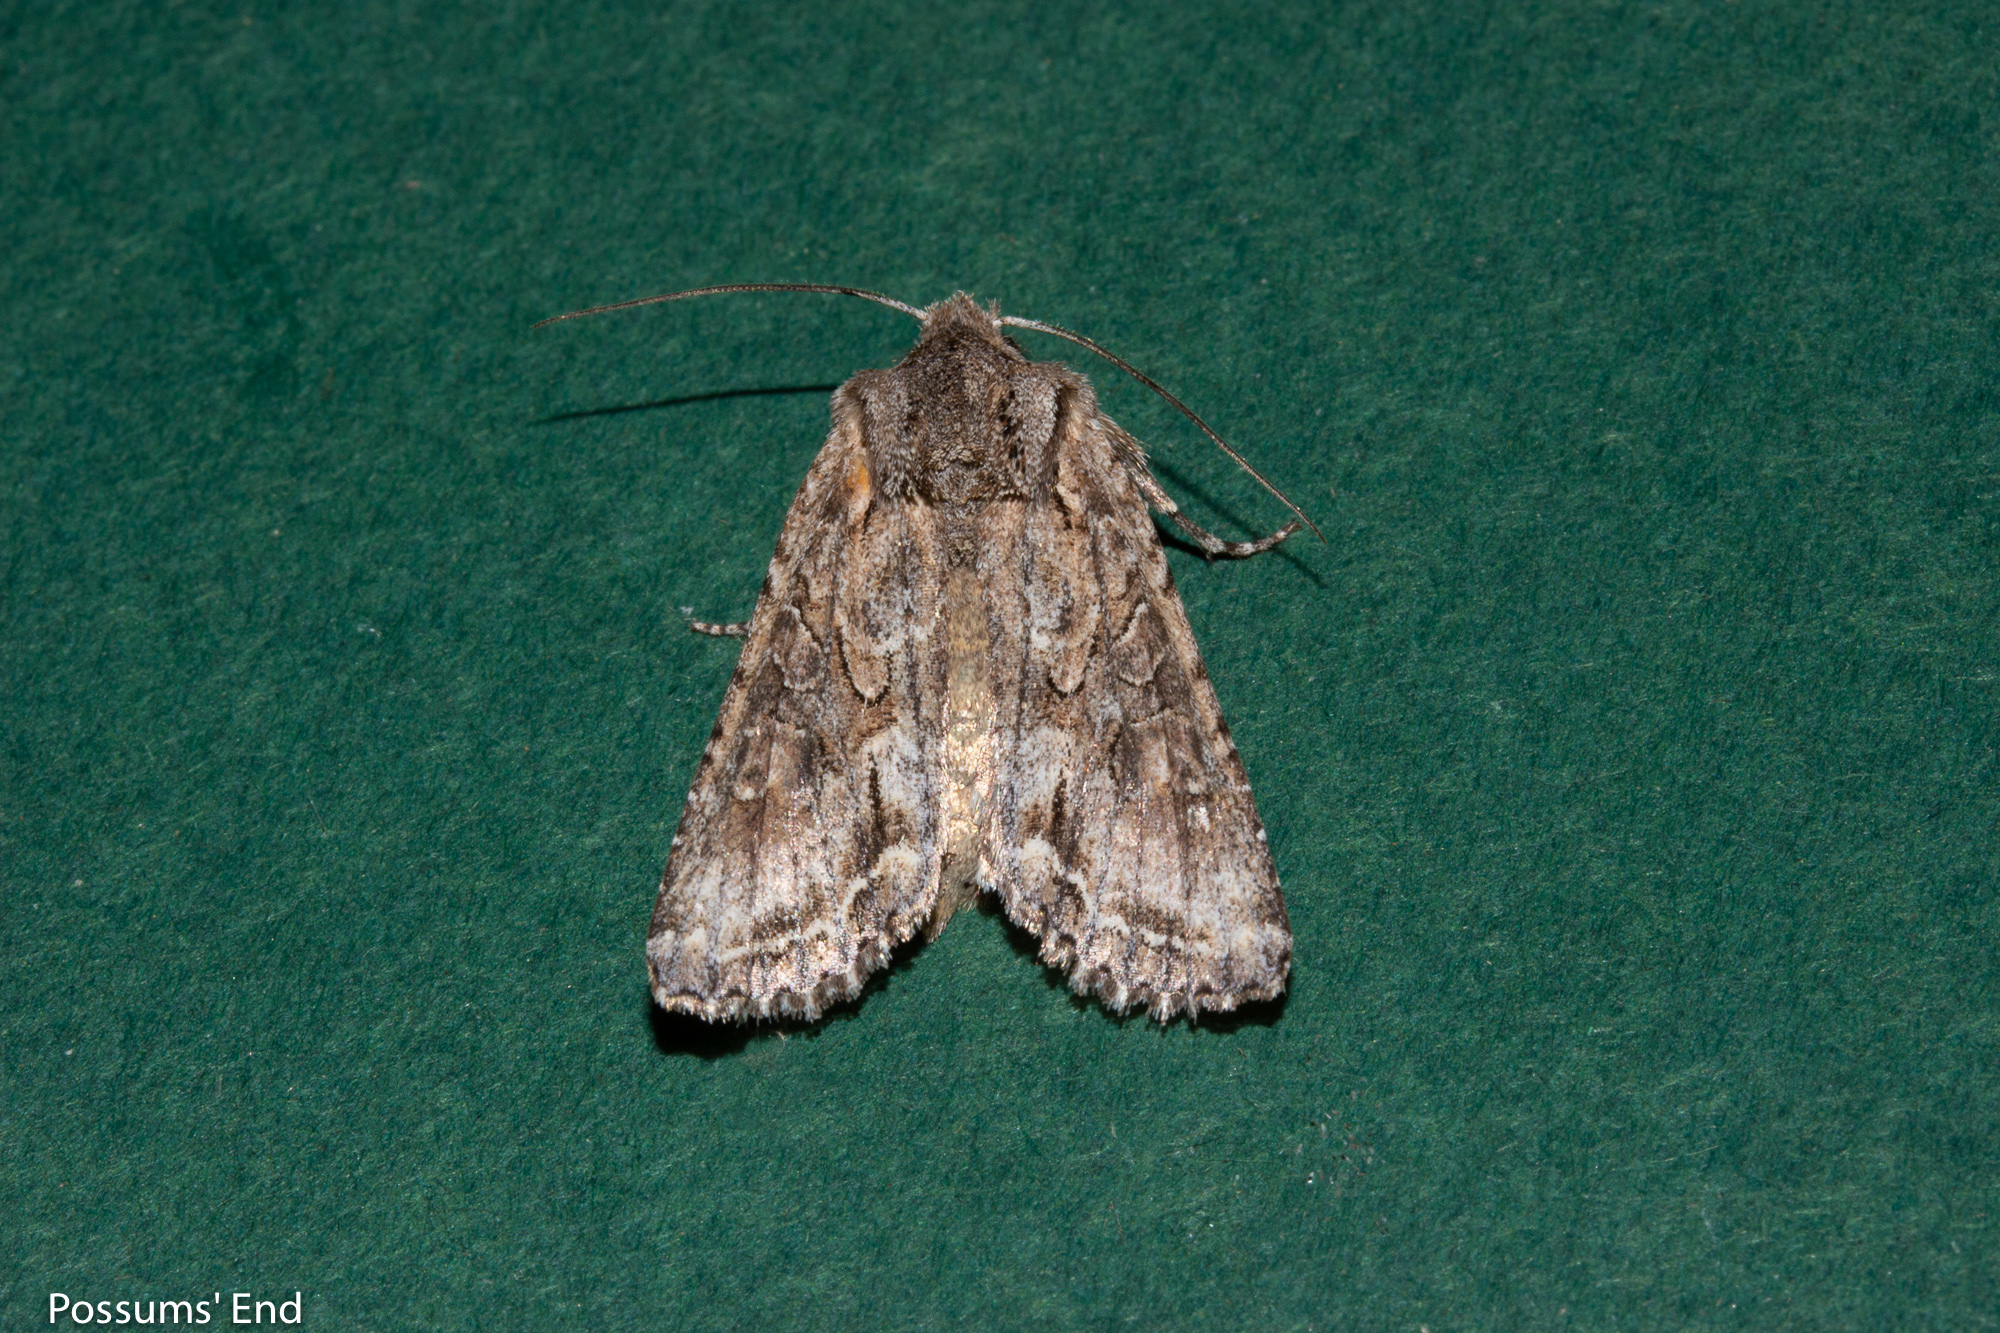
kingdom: Animalia
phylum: Arthropoda
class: Insecta
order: Lepidoptera
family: Noctuidae
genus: Ichneutica
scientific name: Ichneutica mutans
